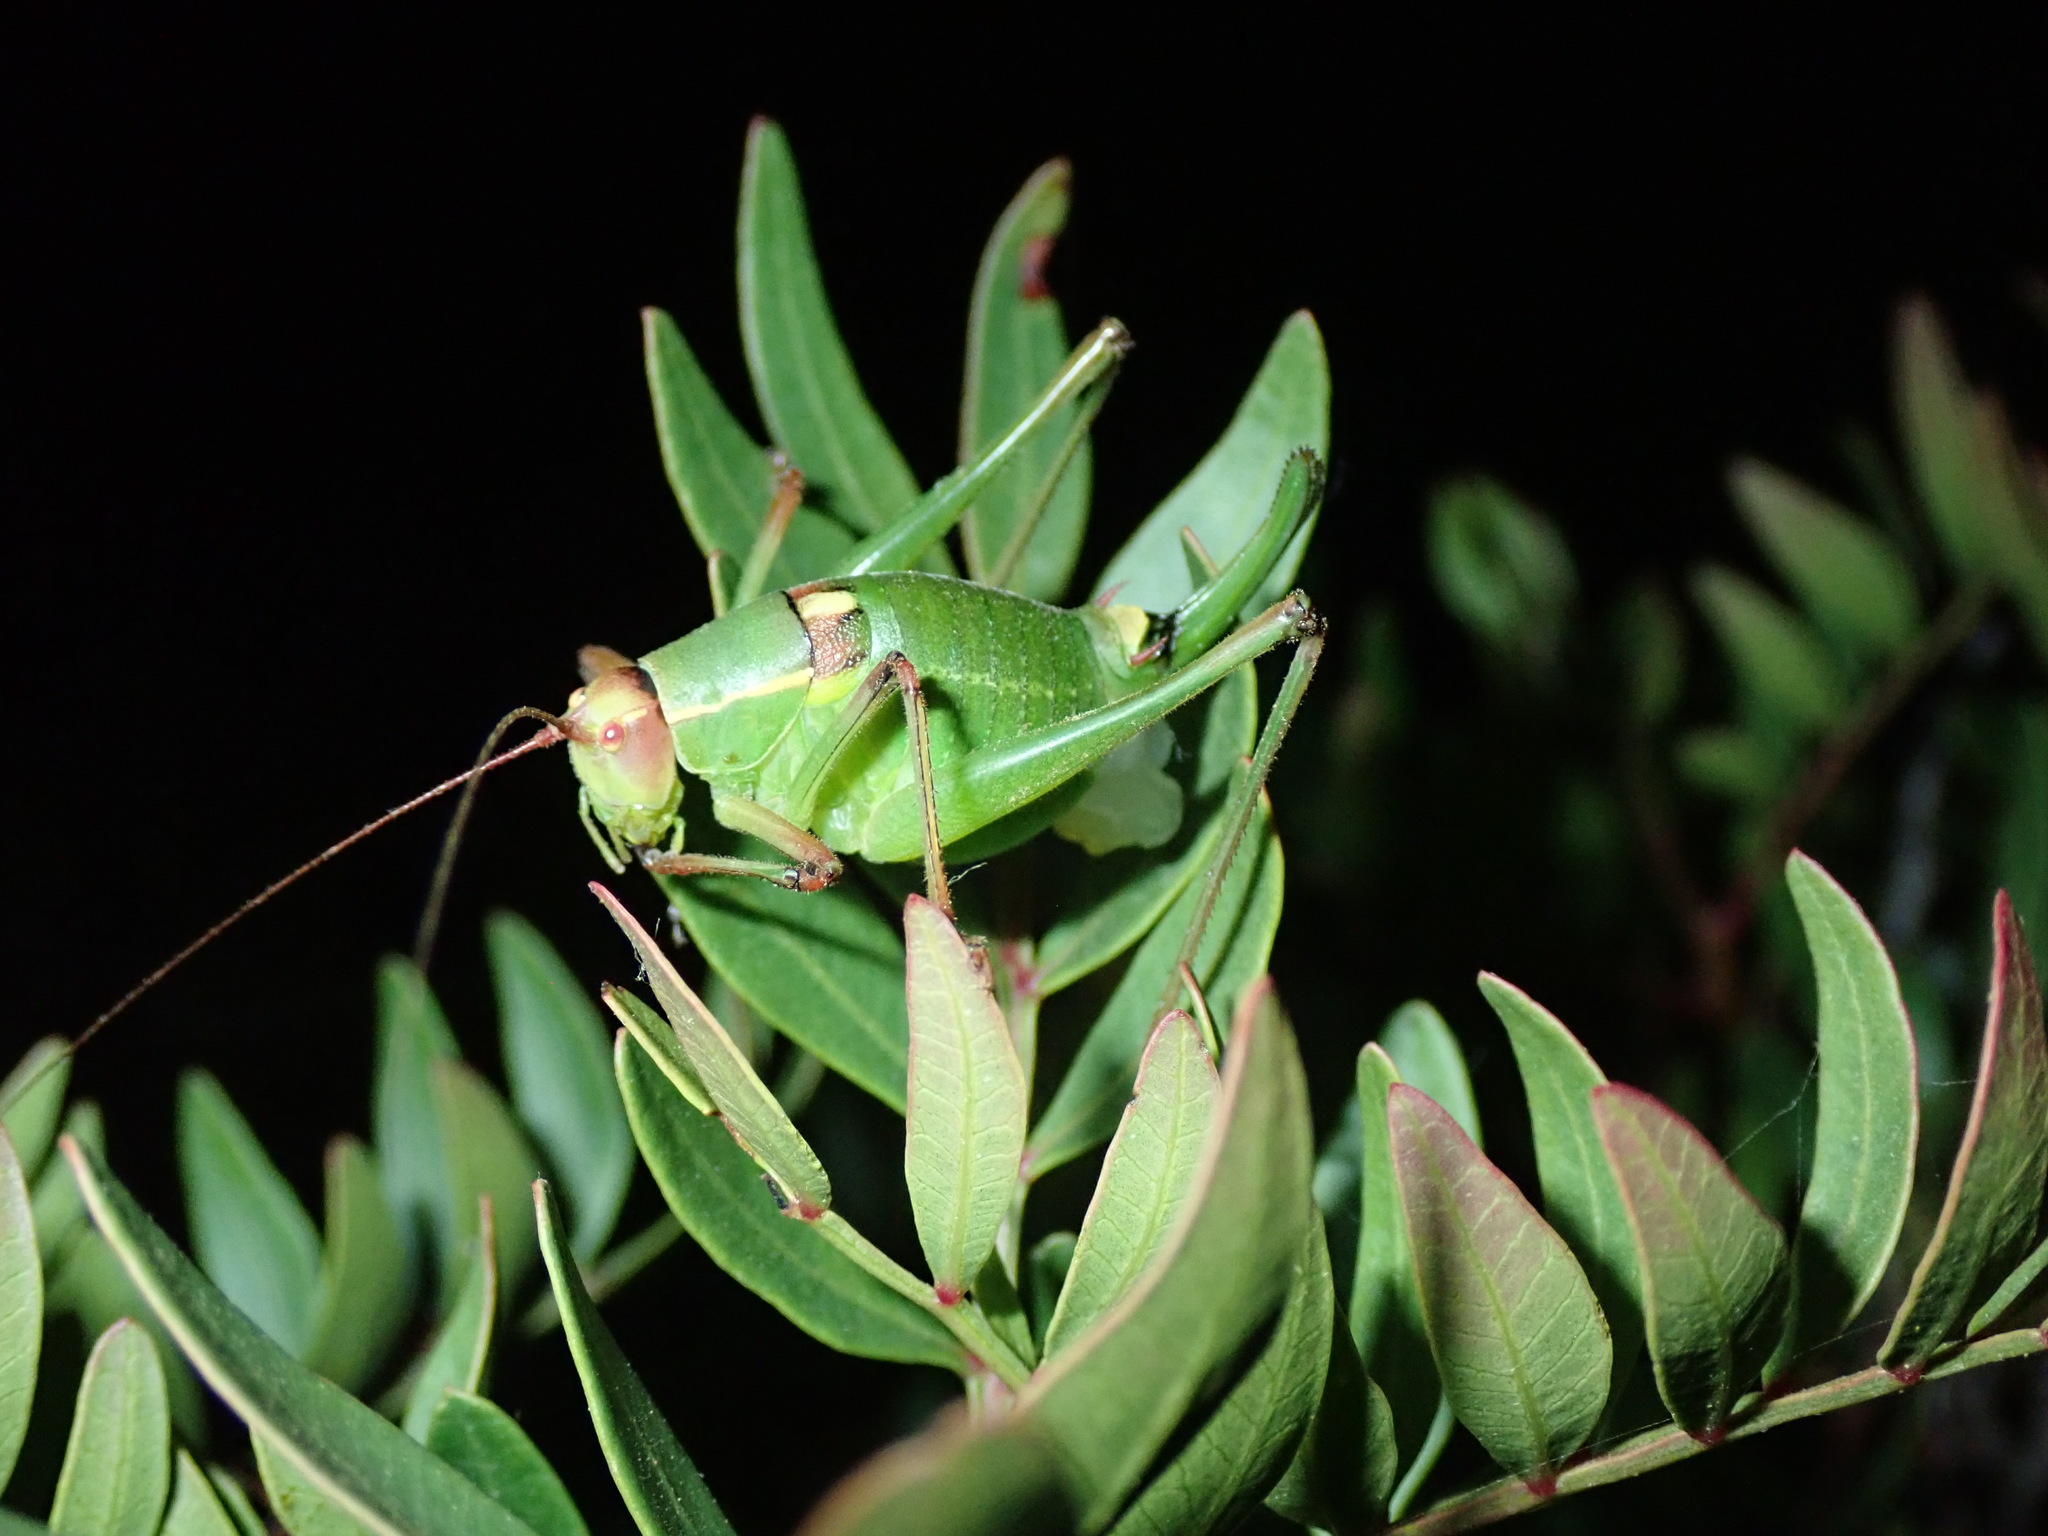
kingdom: Animalia
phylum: Arthropoda
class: Insecta
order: Orthoptera
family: Tettigoniidae
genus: Barbitistes
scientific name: Barbitistes yersini
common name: Balkan saw bush-cricket
